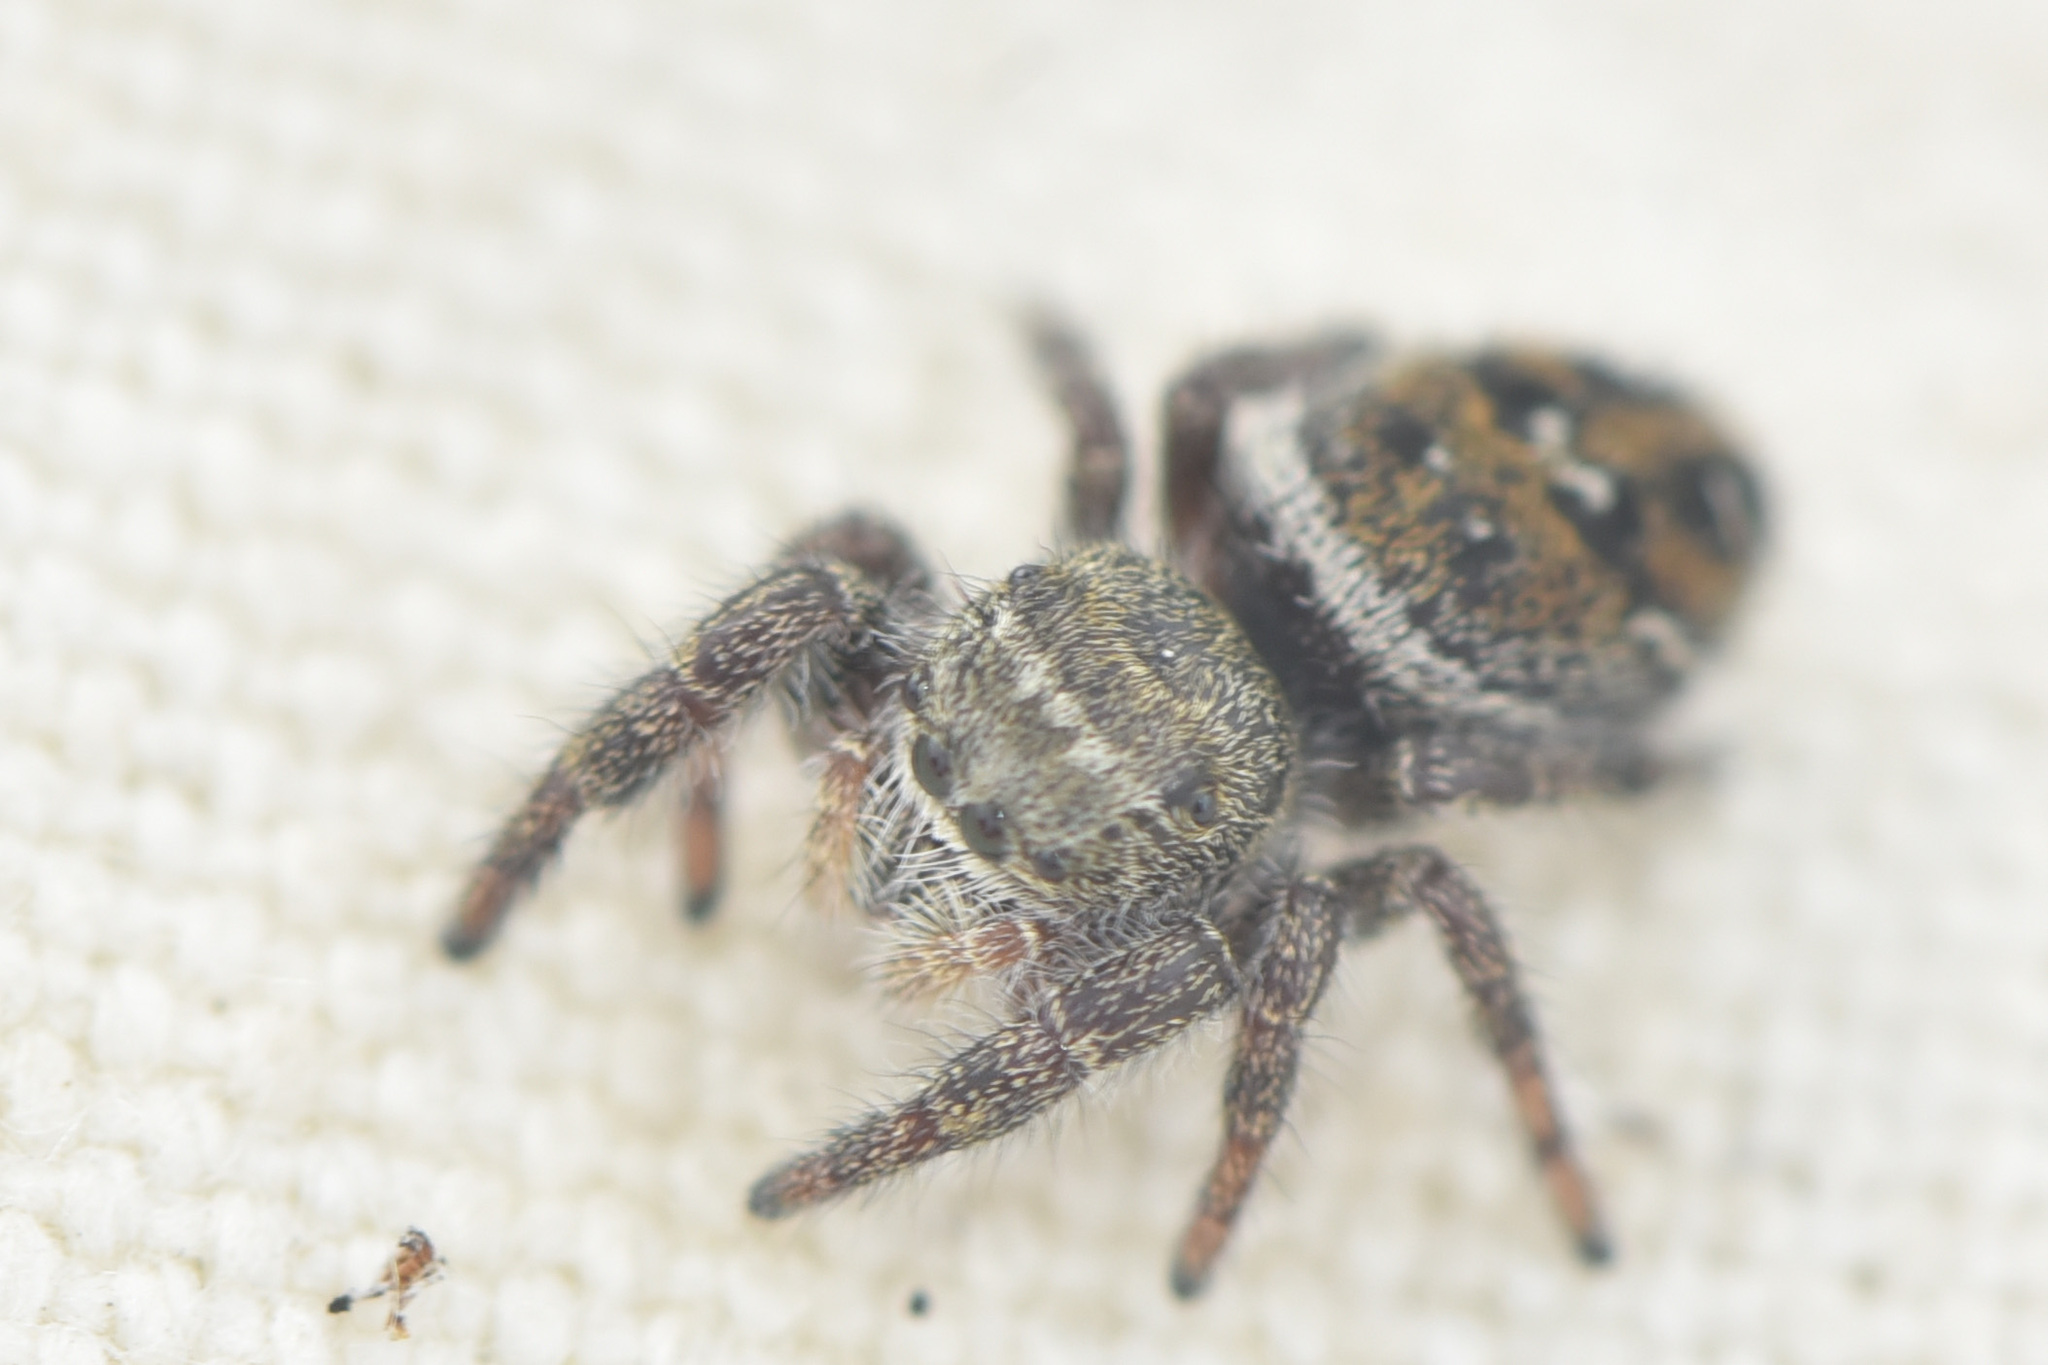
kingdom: Animalia
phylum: Arthropoda
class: Arachnida
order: Araneae
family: Salticidae
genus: Phidippus
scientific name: Phidippus cryptus
